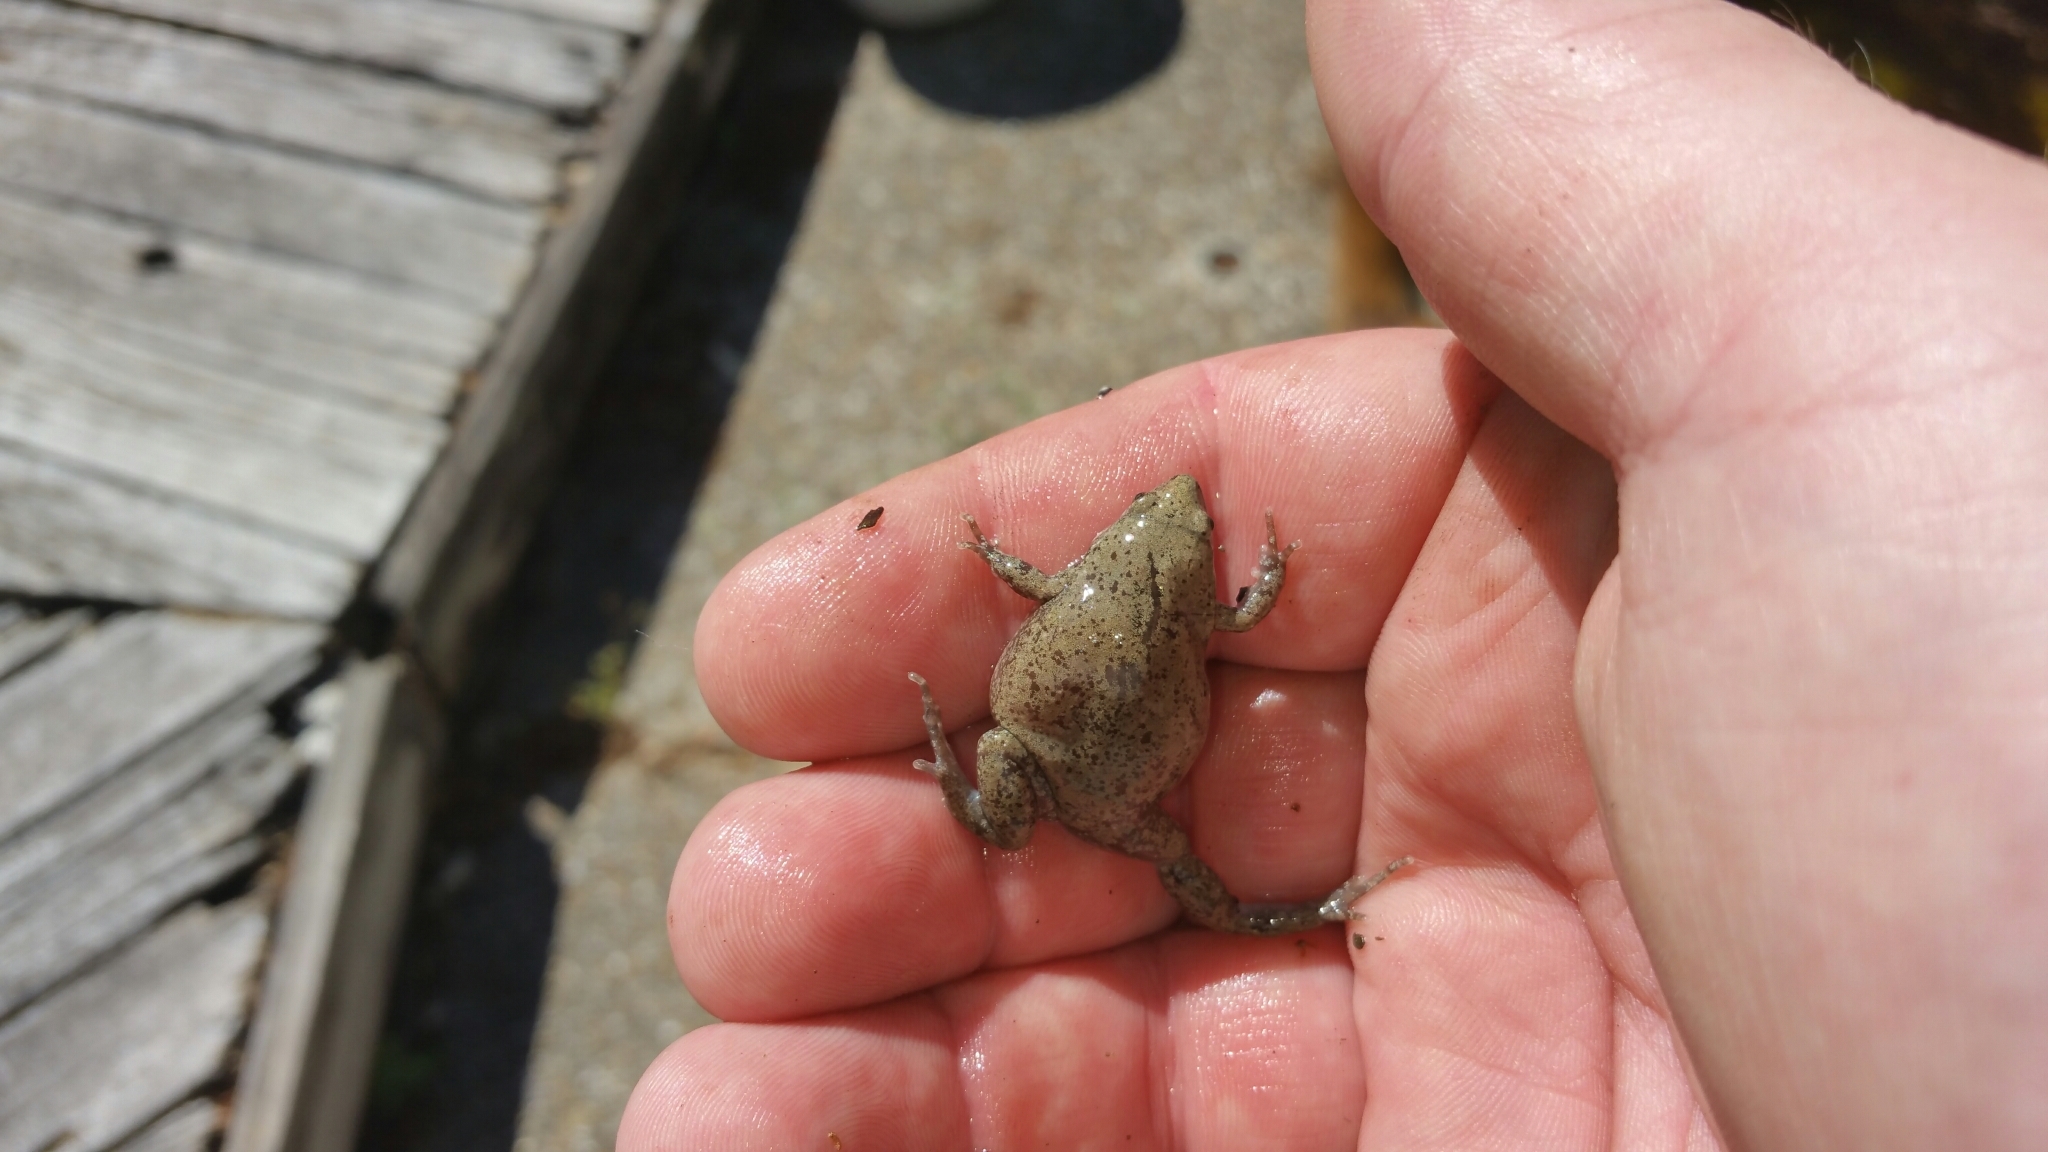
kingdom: Animalia
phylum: Chordata
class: Amphibia
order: Anura
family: Microhylidae
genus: Gastrophryne
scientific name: Gastrophryne olivacea
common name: Great plains narrow-mouthed toad
